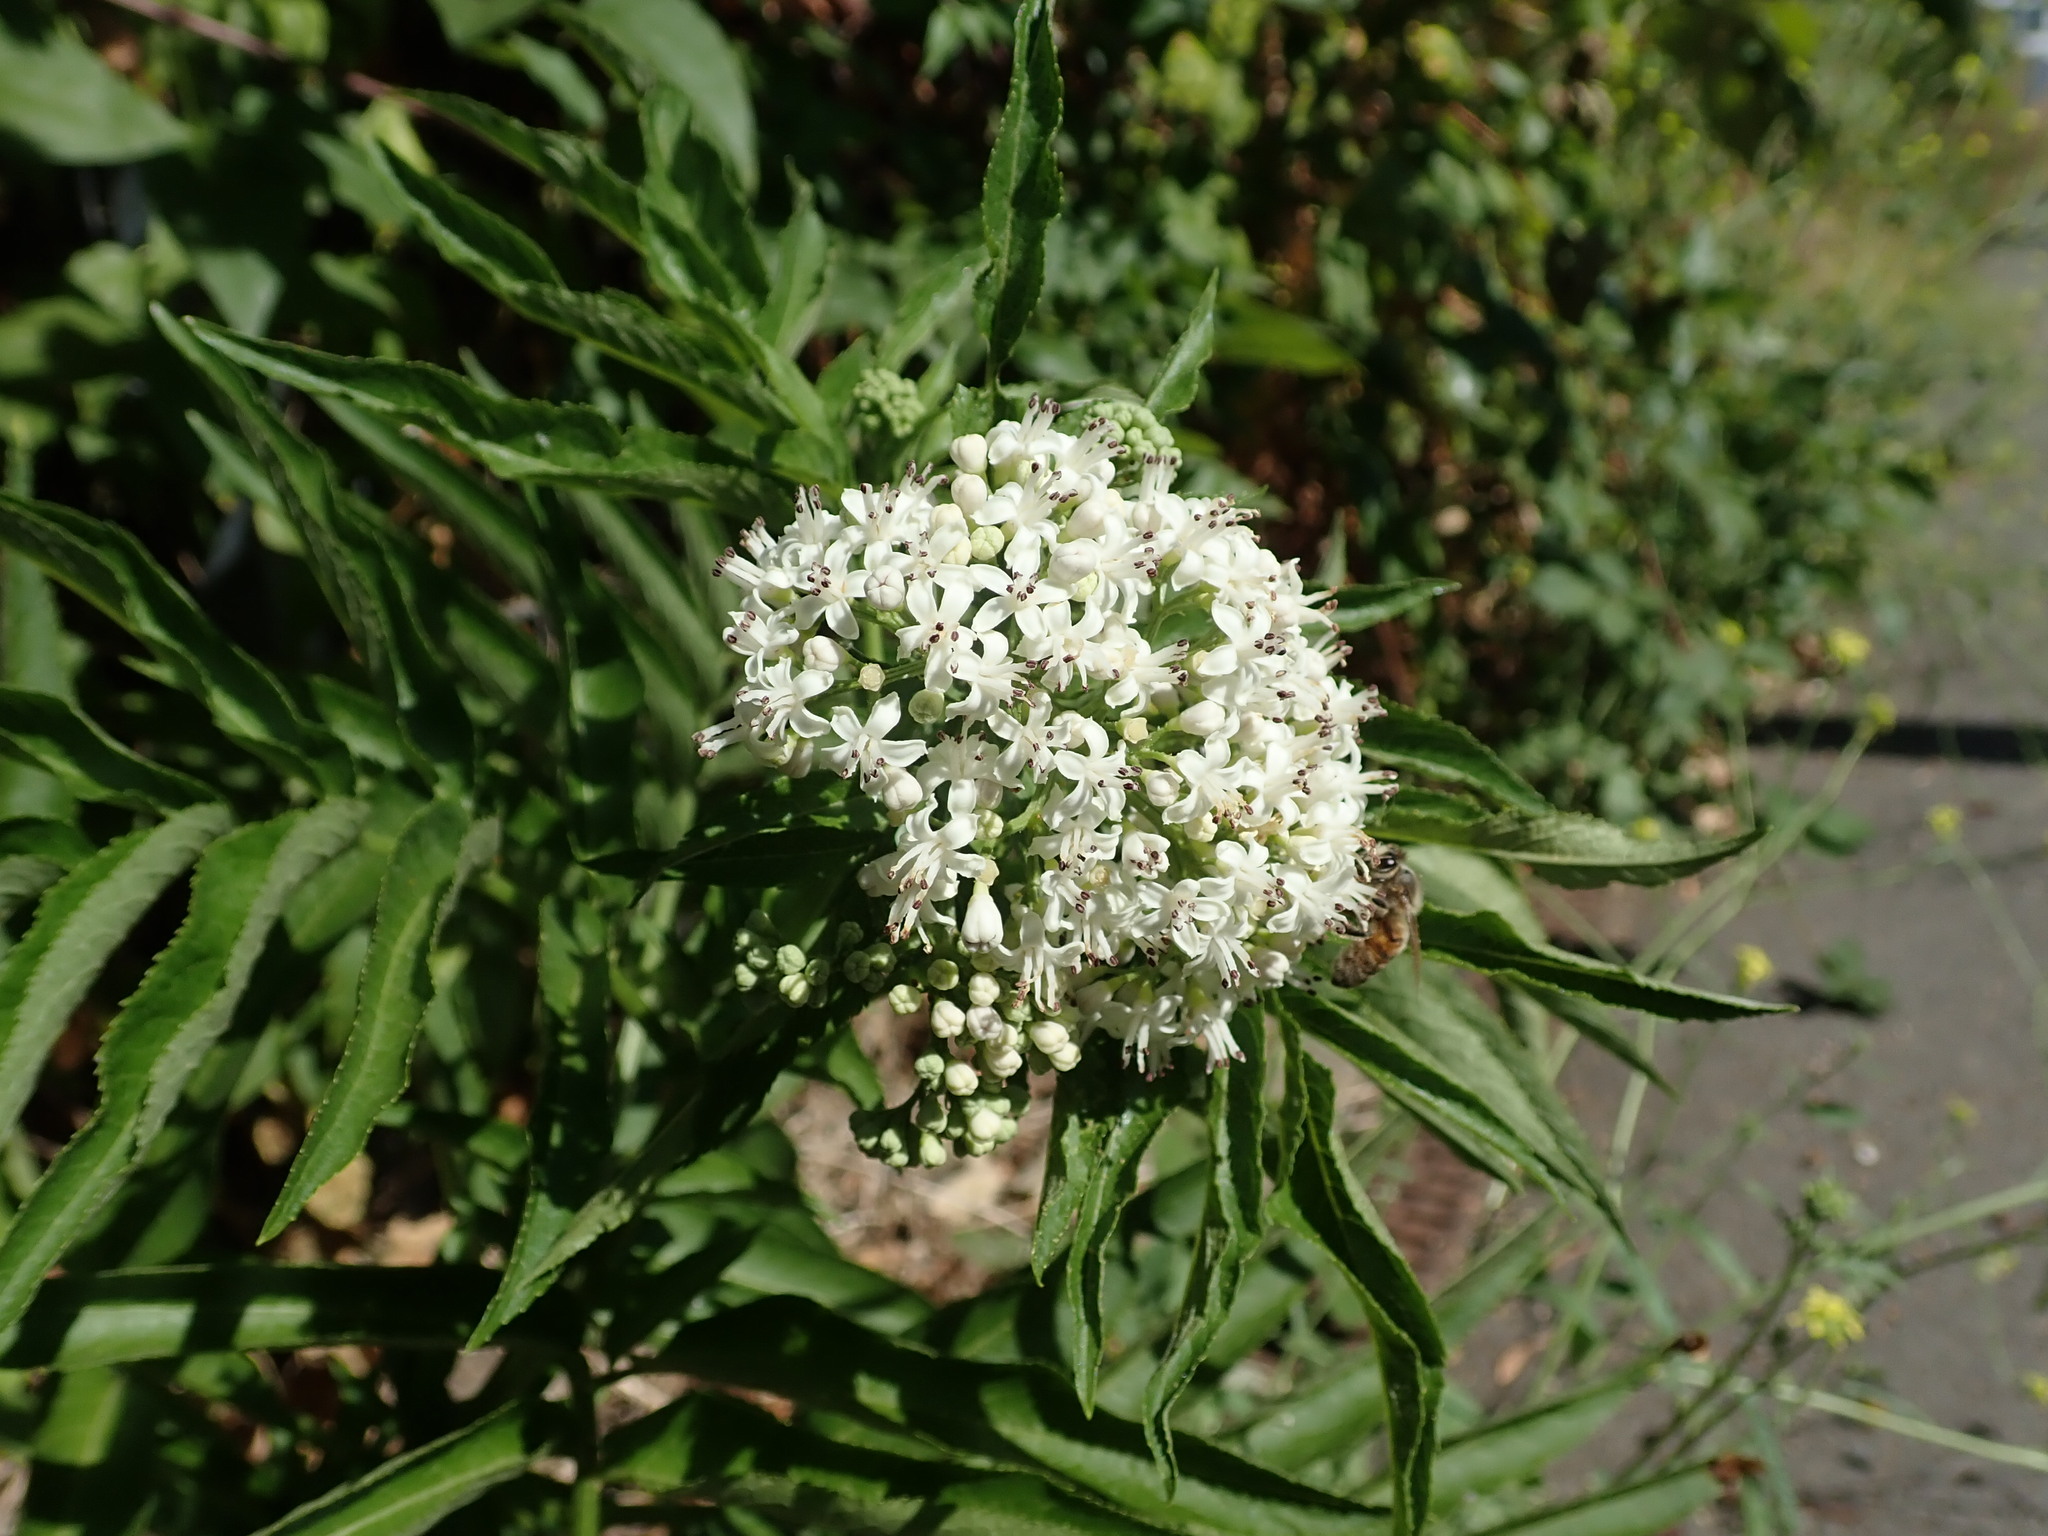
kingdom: Plantae
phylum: Tracheophyta
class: Magnoliopsida
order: Dipsacales
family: Viburnaceae
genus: Sambucus
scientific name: Sambucus ebulus
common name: Dwarf elder
